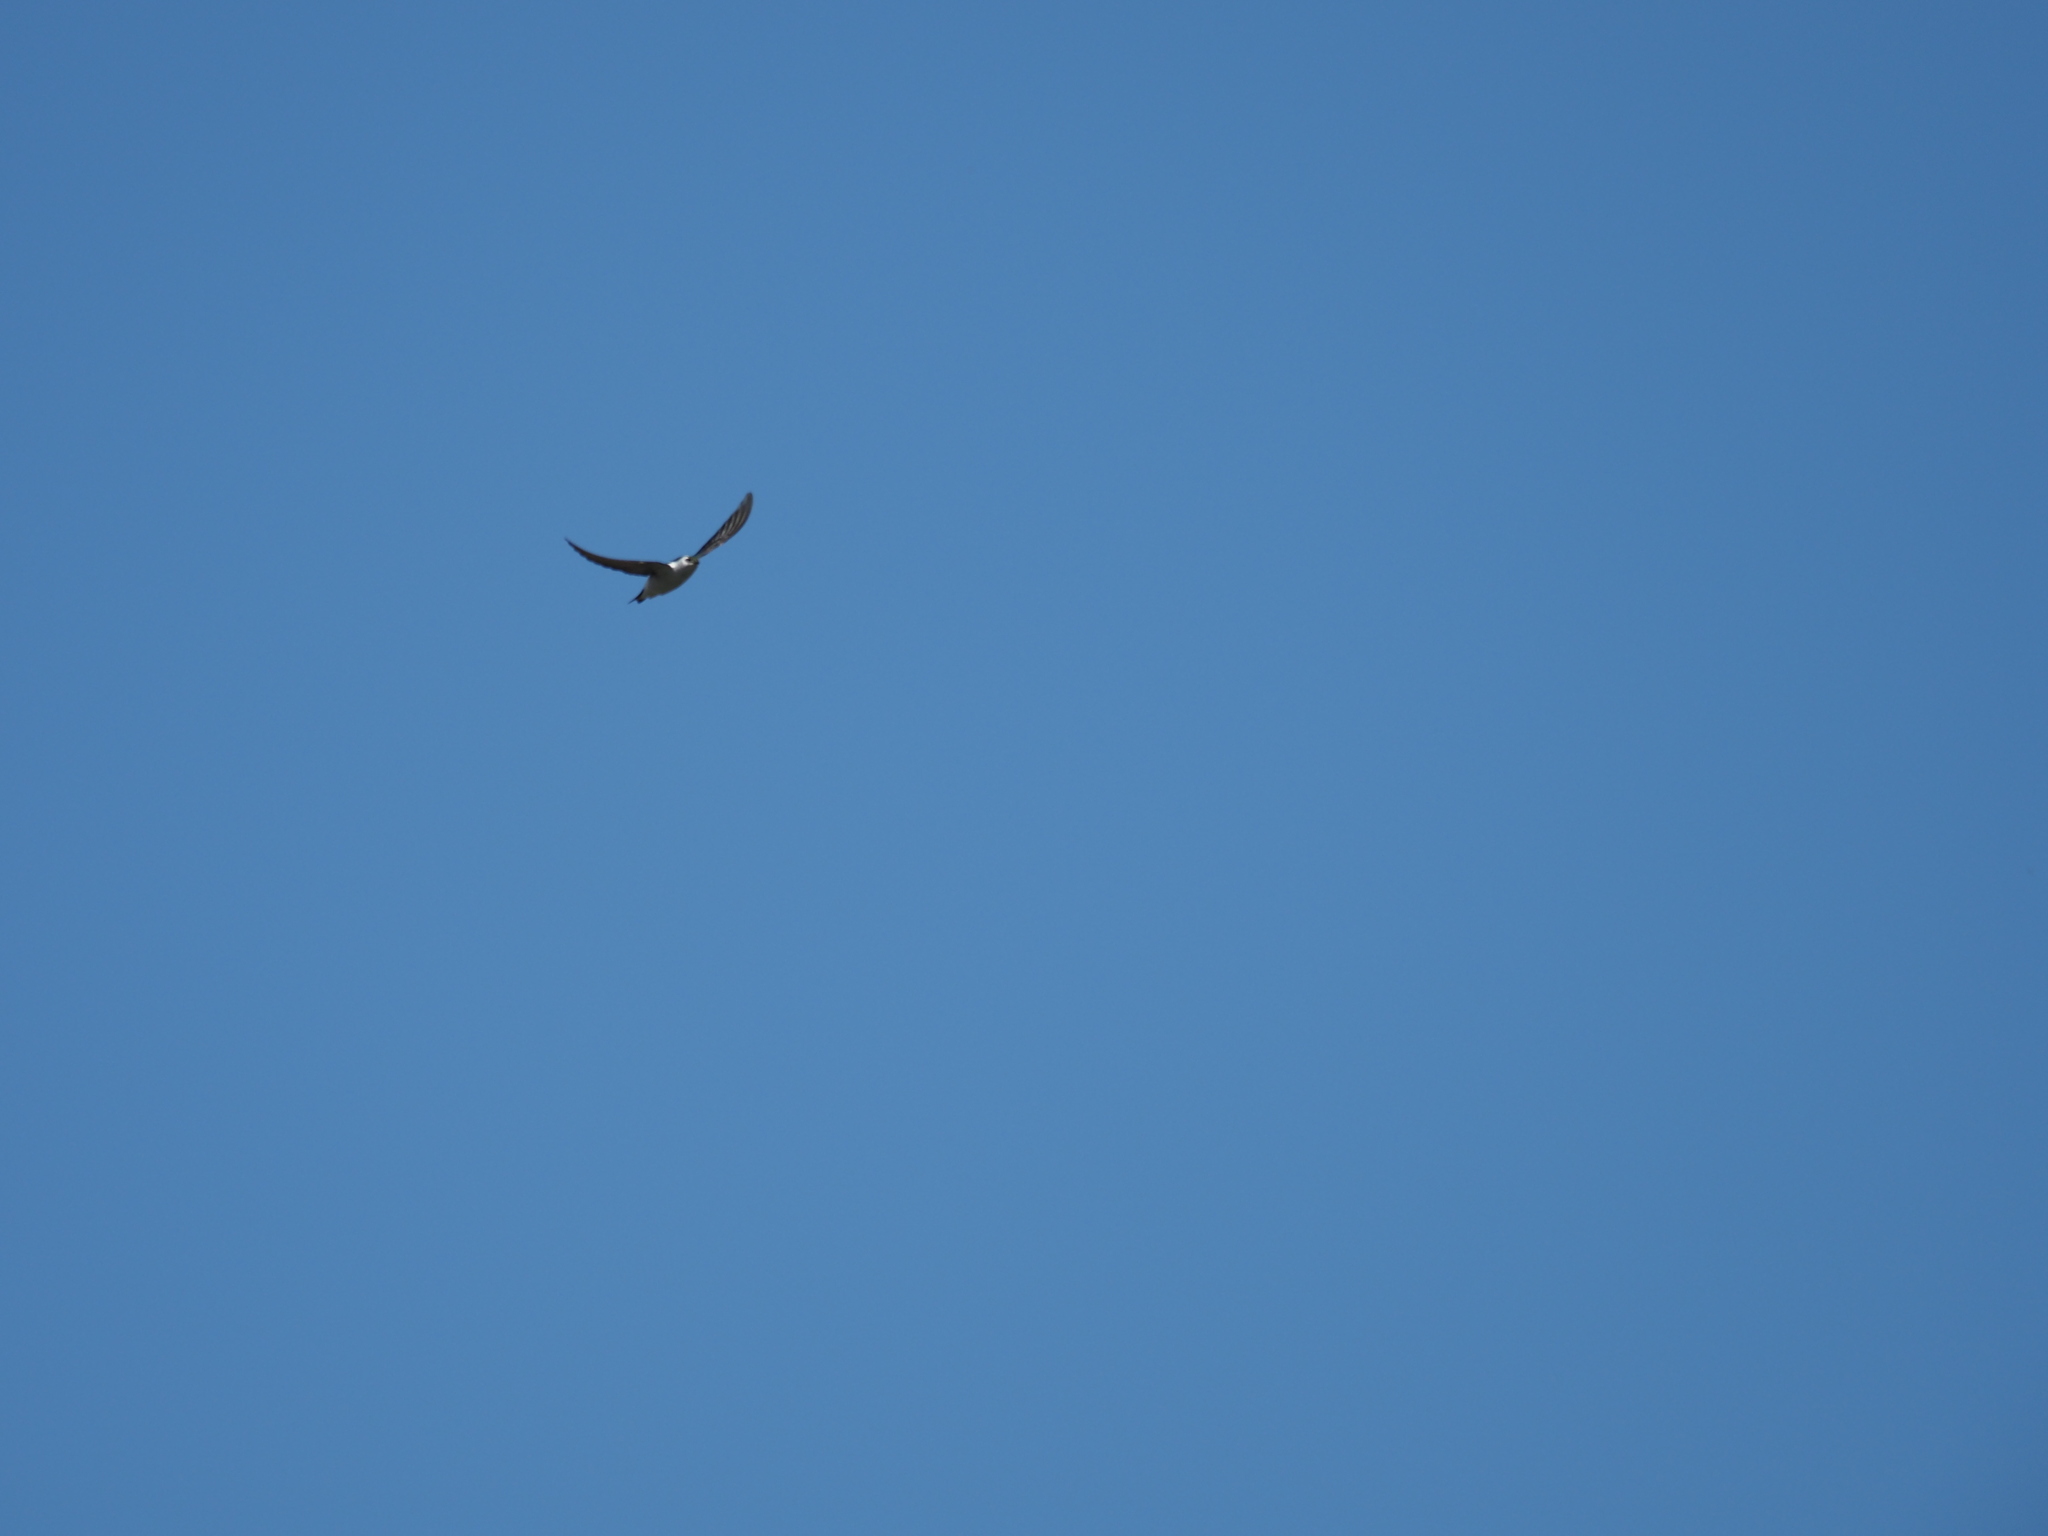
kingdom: Animalia
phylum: Chordata
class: Aves
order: Passeriformes
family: Hirundinidae
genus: Tachycineta
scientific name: Tachycineta thalassina
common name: Violet-green swallow
